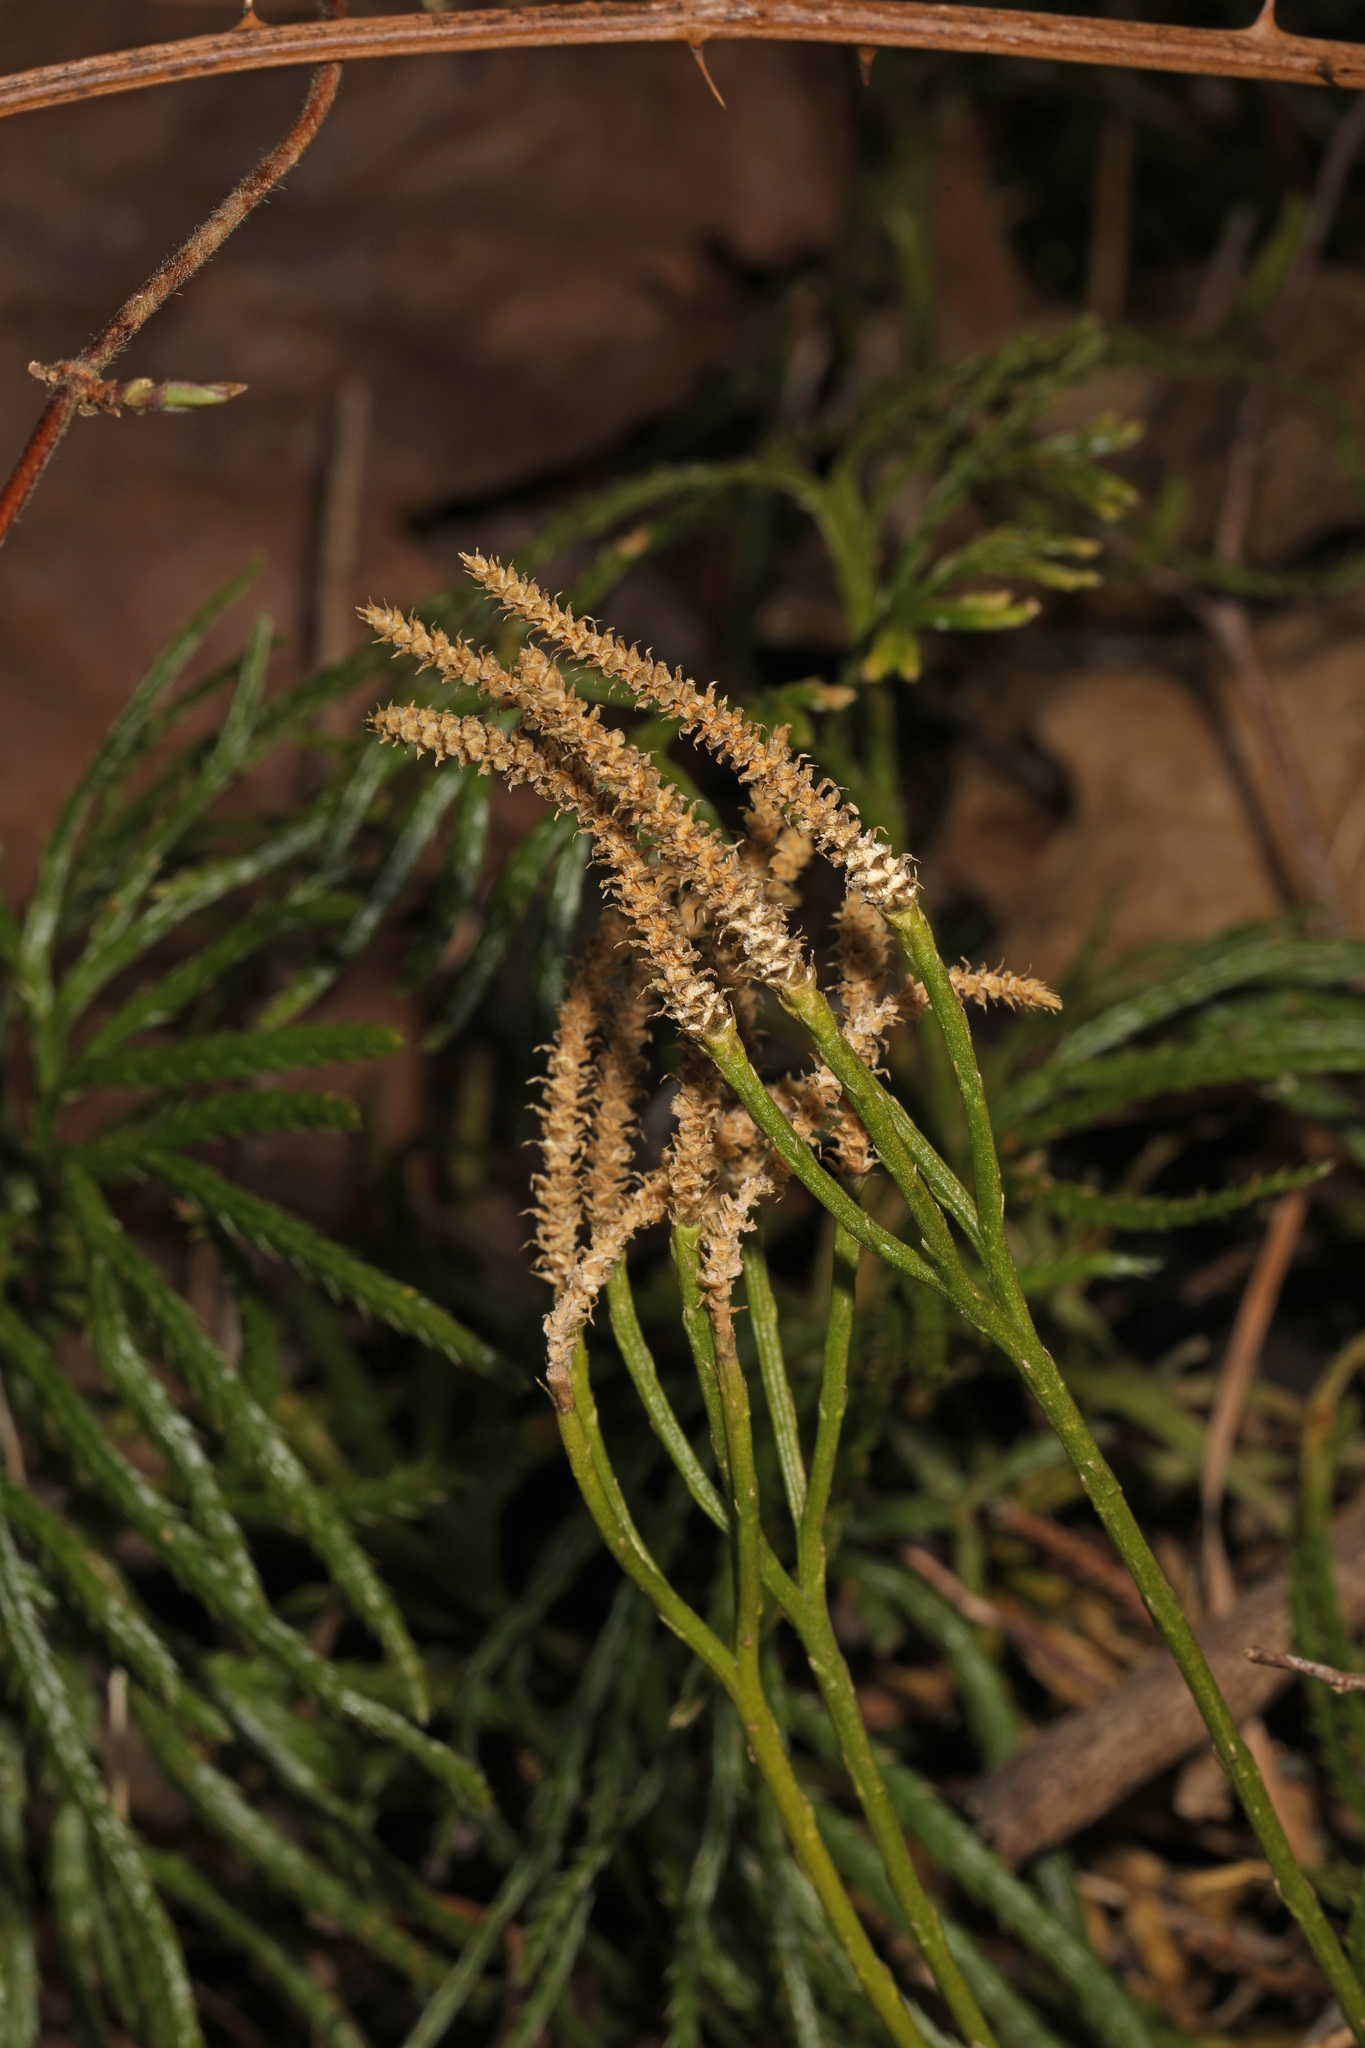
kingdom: Plantae
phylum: Tracheophyta
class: Lycopodiopsida
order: Lycopodiales
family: Lycopodiaceae
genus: Diphasiastrum
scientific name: Diphasiastrum digitatum
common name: Southern running-pine
